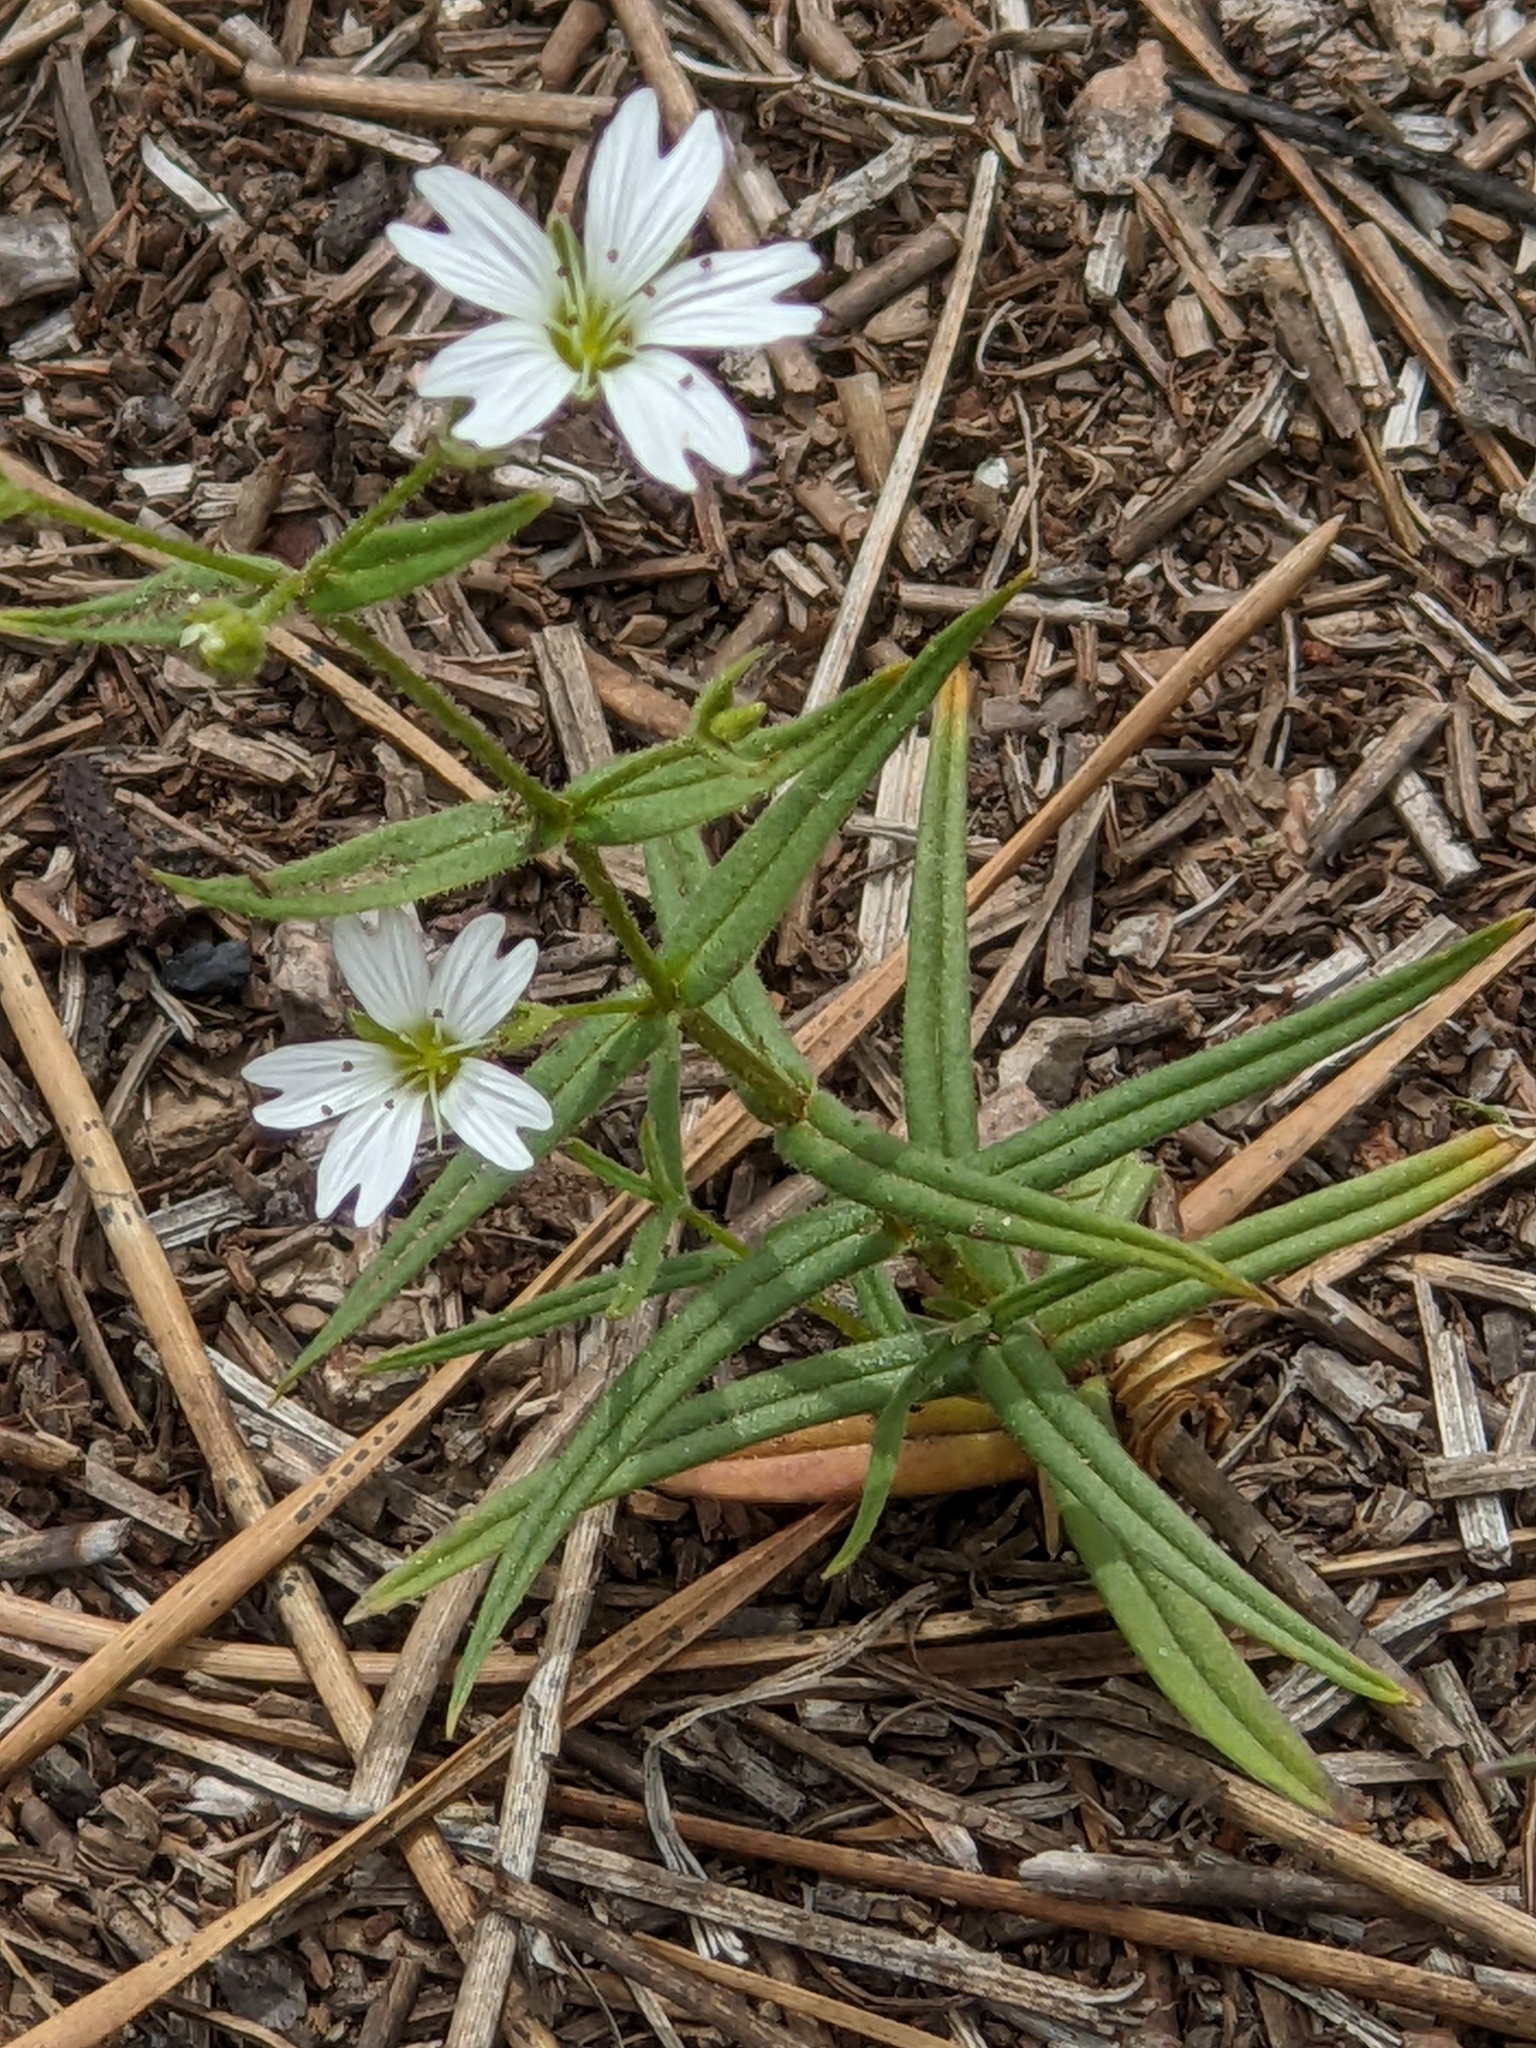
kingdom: Plantae
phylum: Tracheophyta
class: Magnoliopsida
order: Caryophyllales
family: Caryophyllaceae
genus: Schizotechium
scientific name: Schizotechium jamesianum
